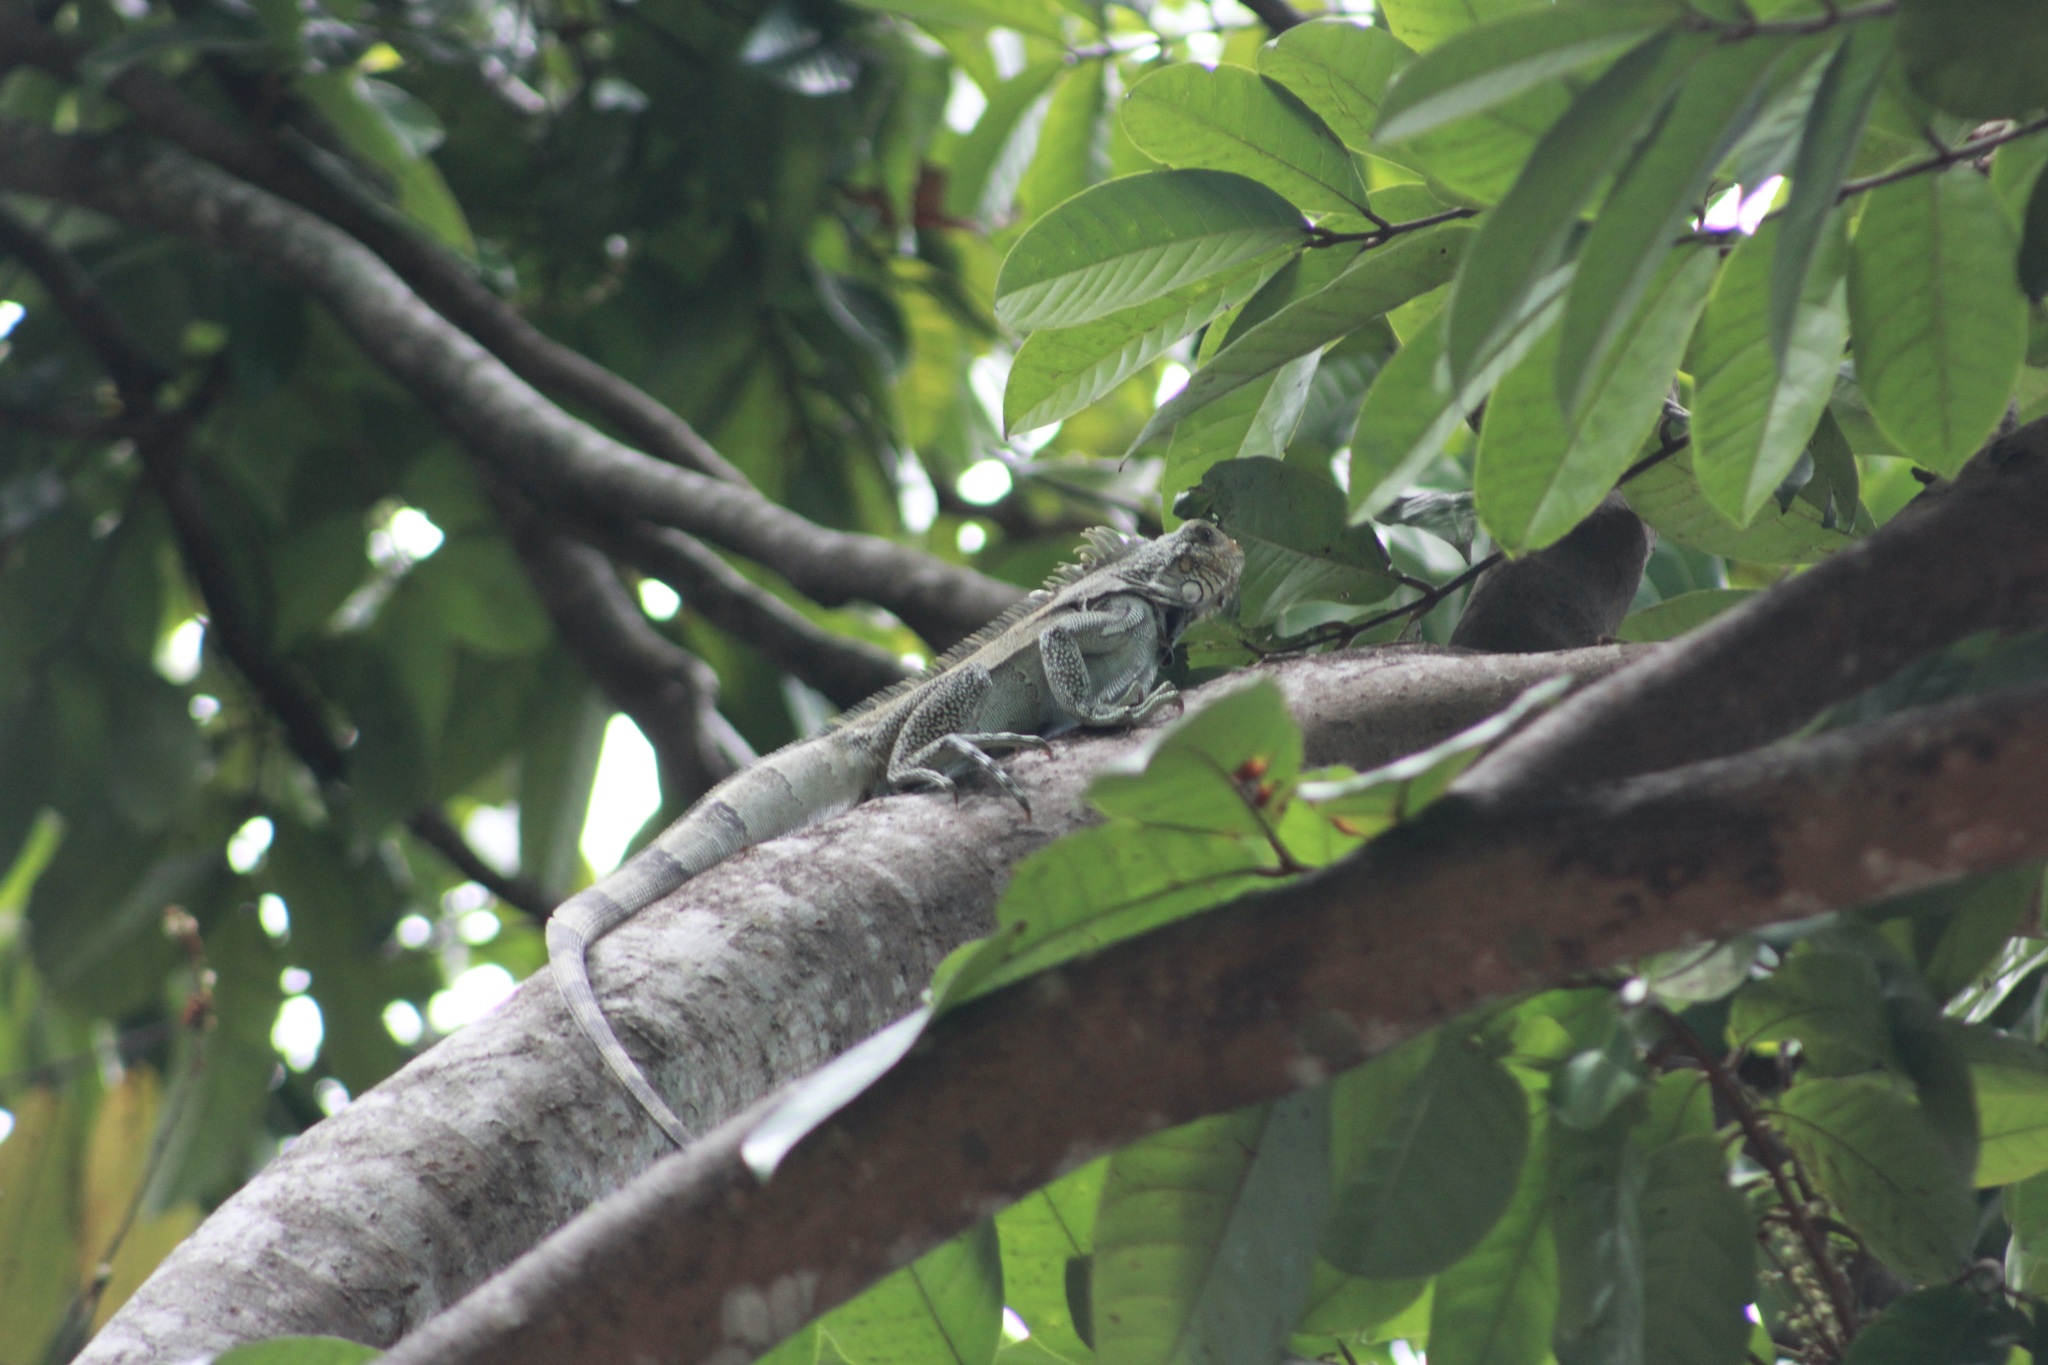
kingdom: Animalia
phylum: Chordata
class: Squamata
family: Iguanidae
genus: Iguana
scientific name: Iguana iguana
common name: Green iguana
